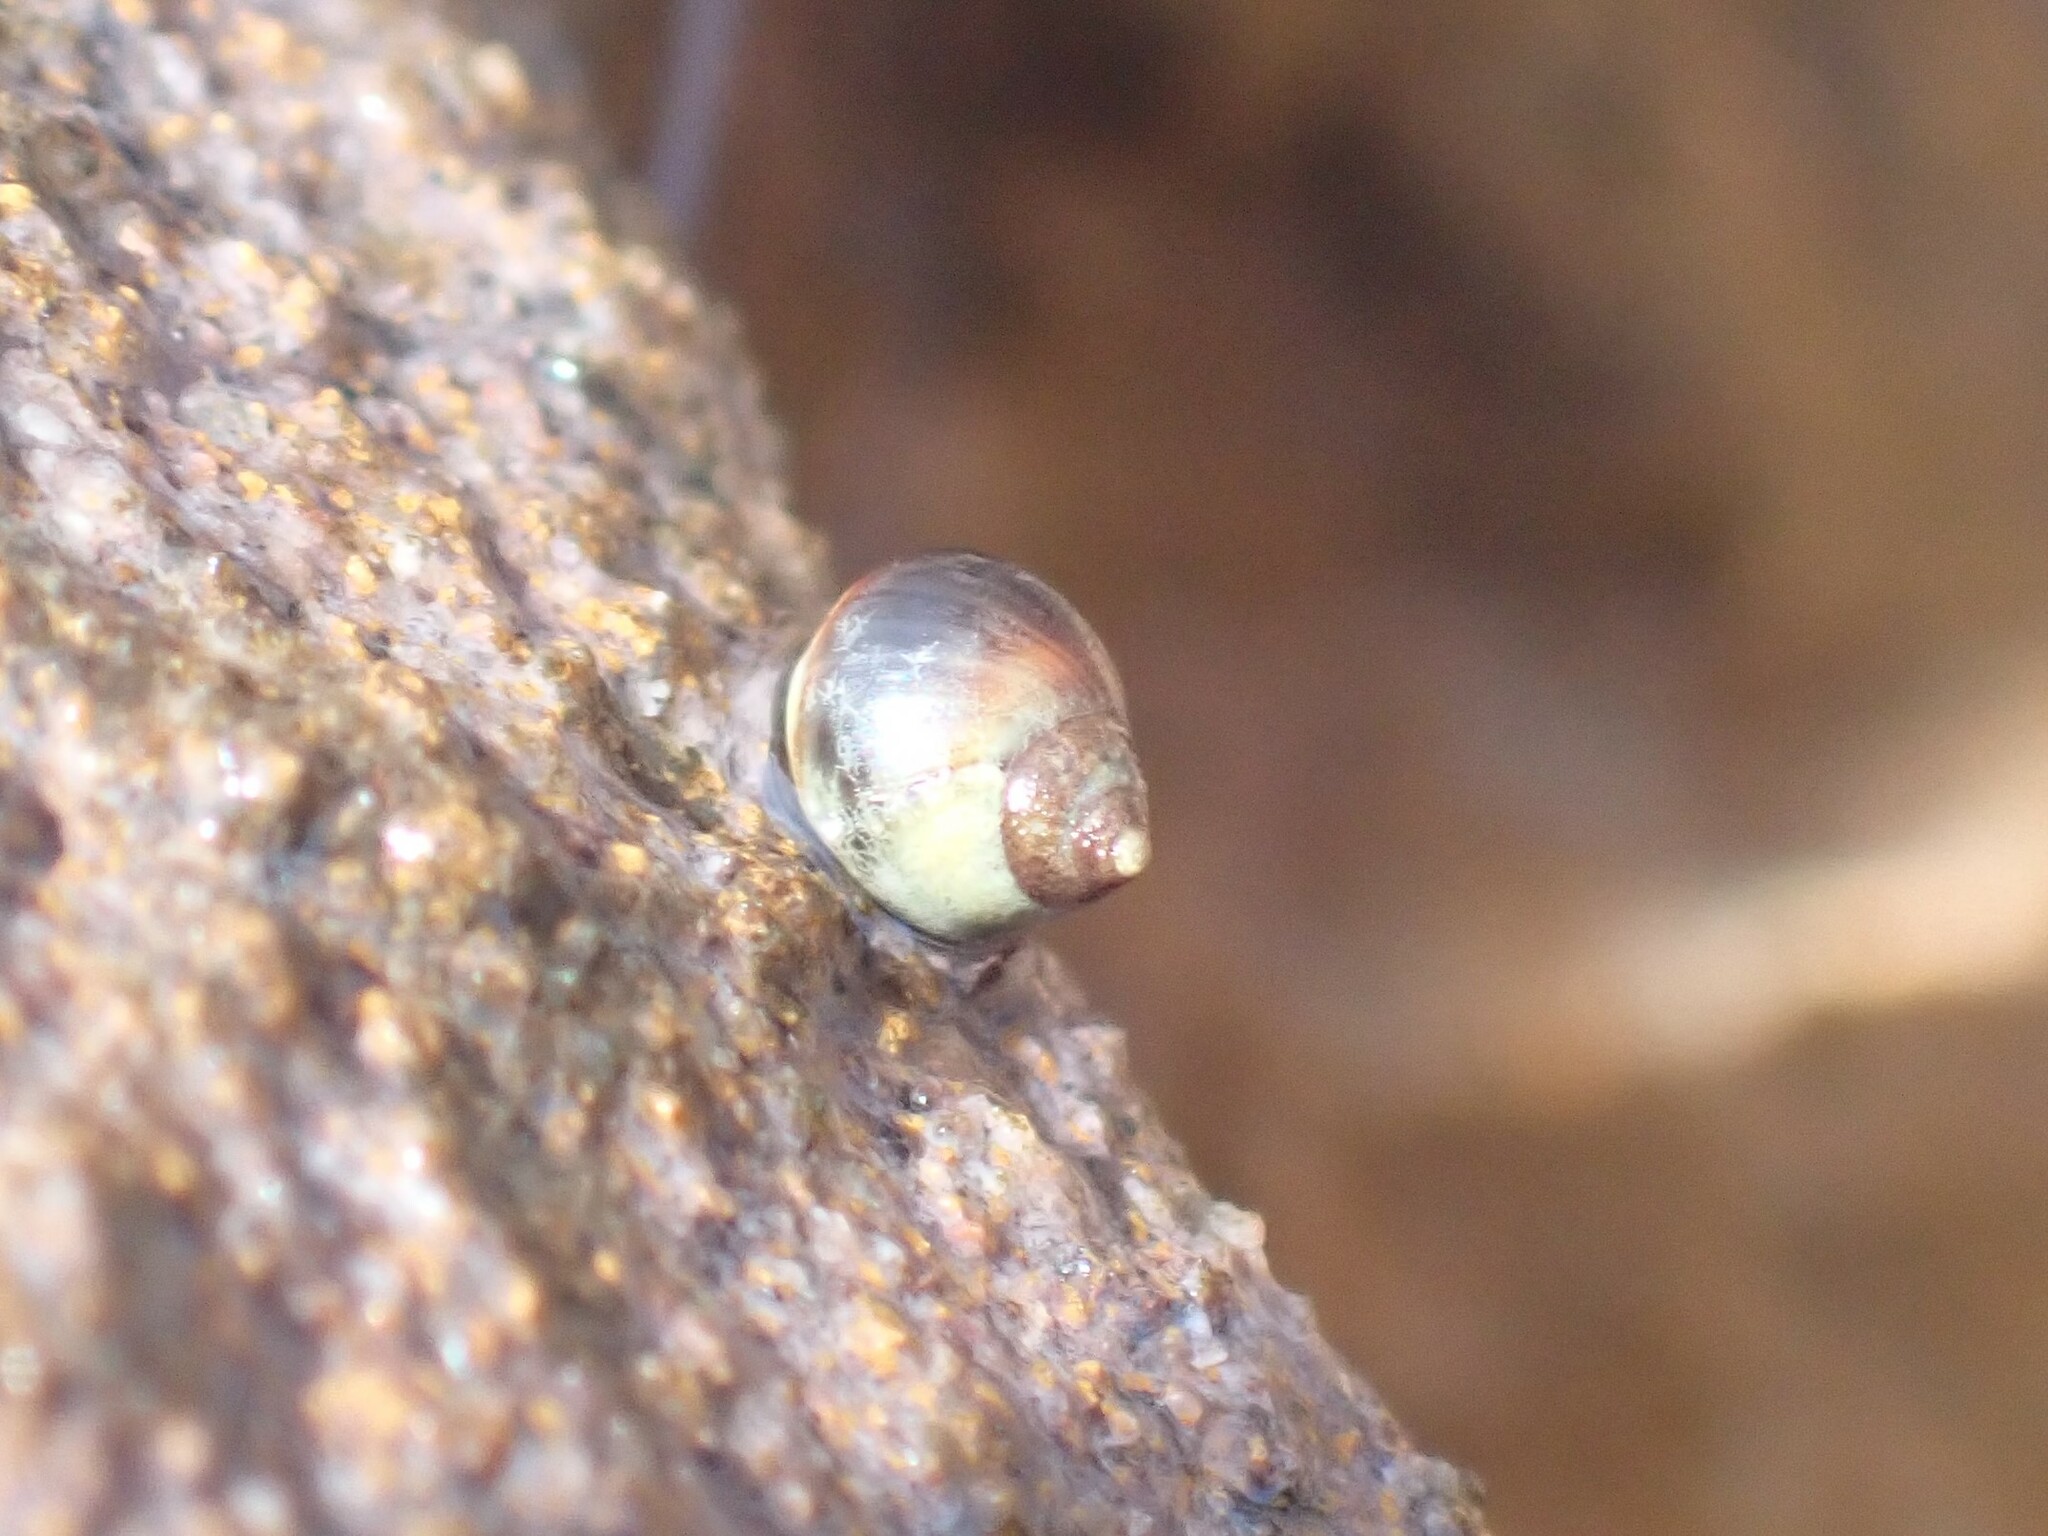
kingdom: Animalia
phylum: Mollusca
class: Gastropoda
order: Littorinimorpha
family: Littorinidae
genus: Melarhaphe
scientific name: Melarhaphe neritoides
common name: Small periwinkle
